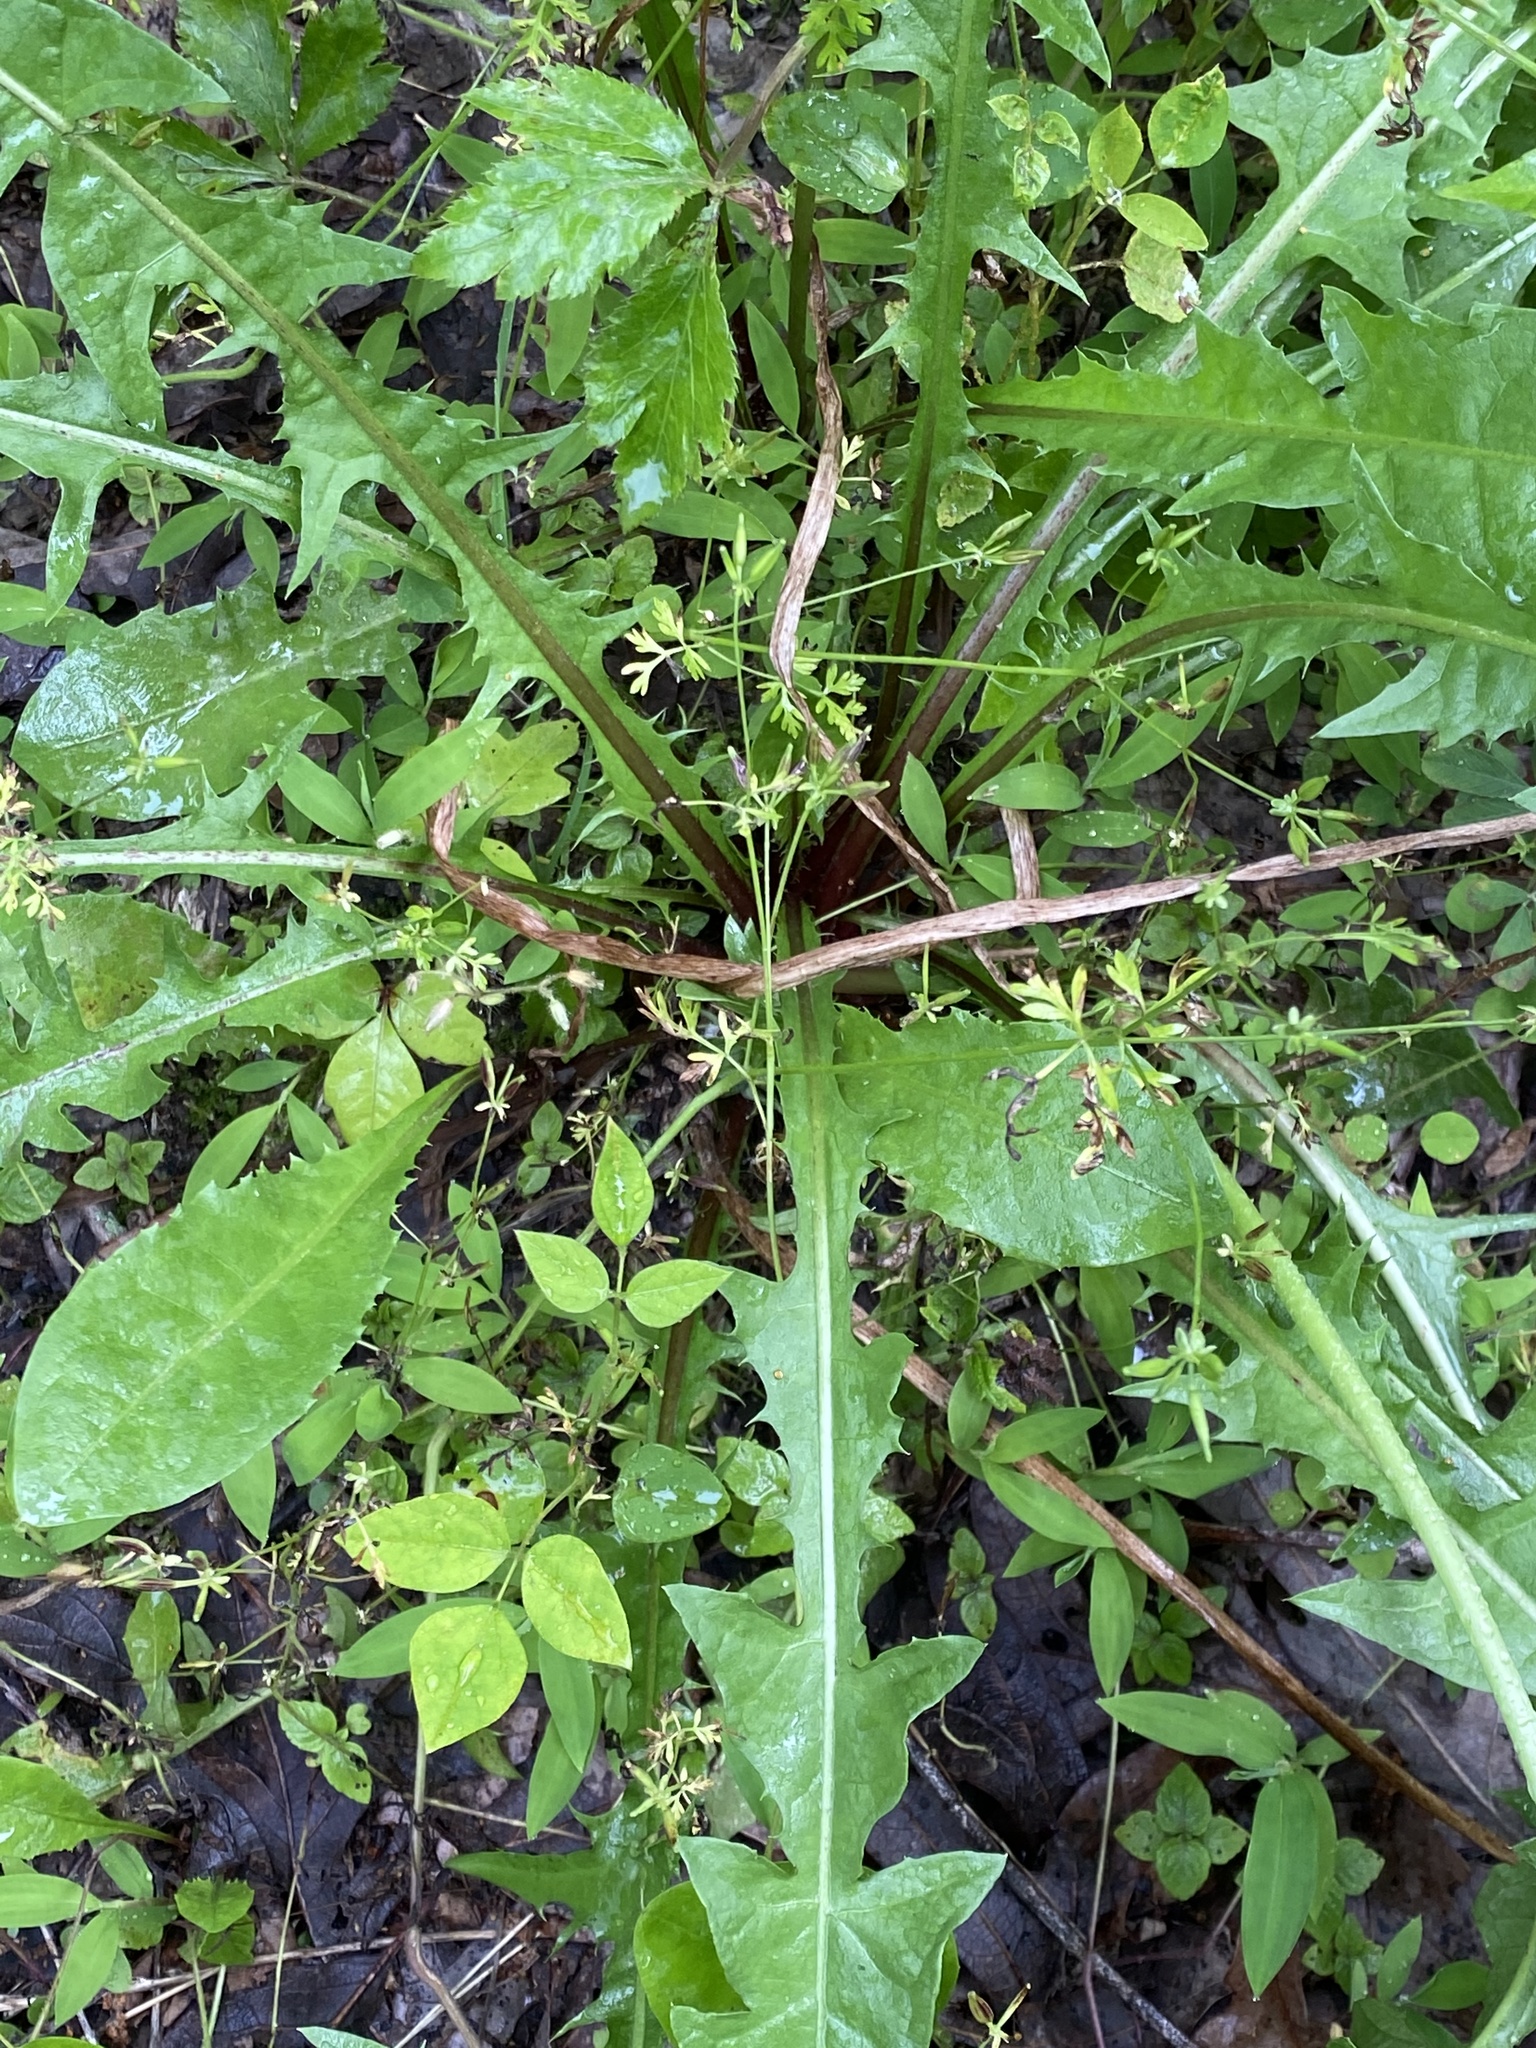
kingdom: Plantae
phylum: Tracheophyta
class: Magnoliopsida
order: Asterales
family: Asteraceae
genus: Taraxacum
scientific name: Taraxacum officinale
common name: Common dandelion
